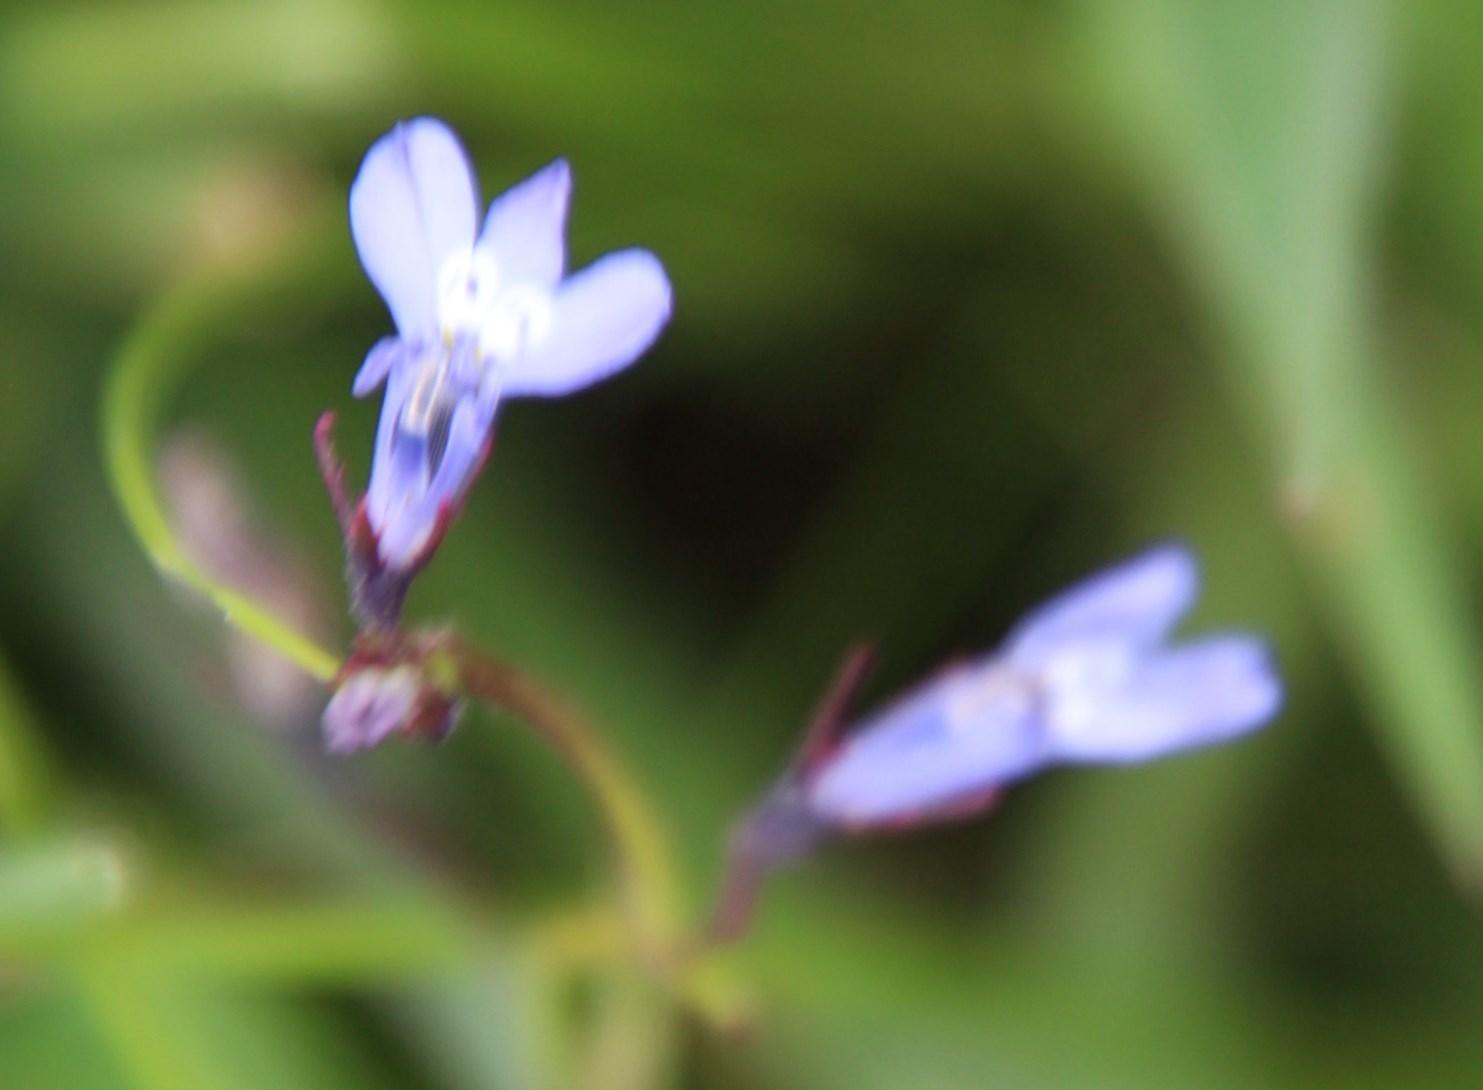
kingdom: Plantae
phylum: Tracheophyta
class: Magnoliopsida
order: Asterales
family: Campanulaceae
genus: Lobelia
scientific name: Lobelia flaccida
